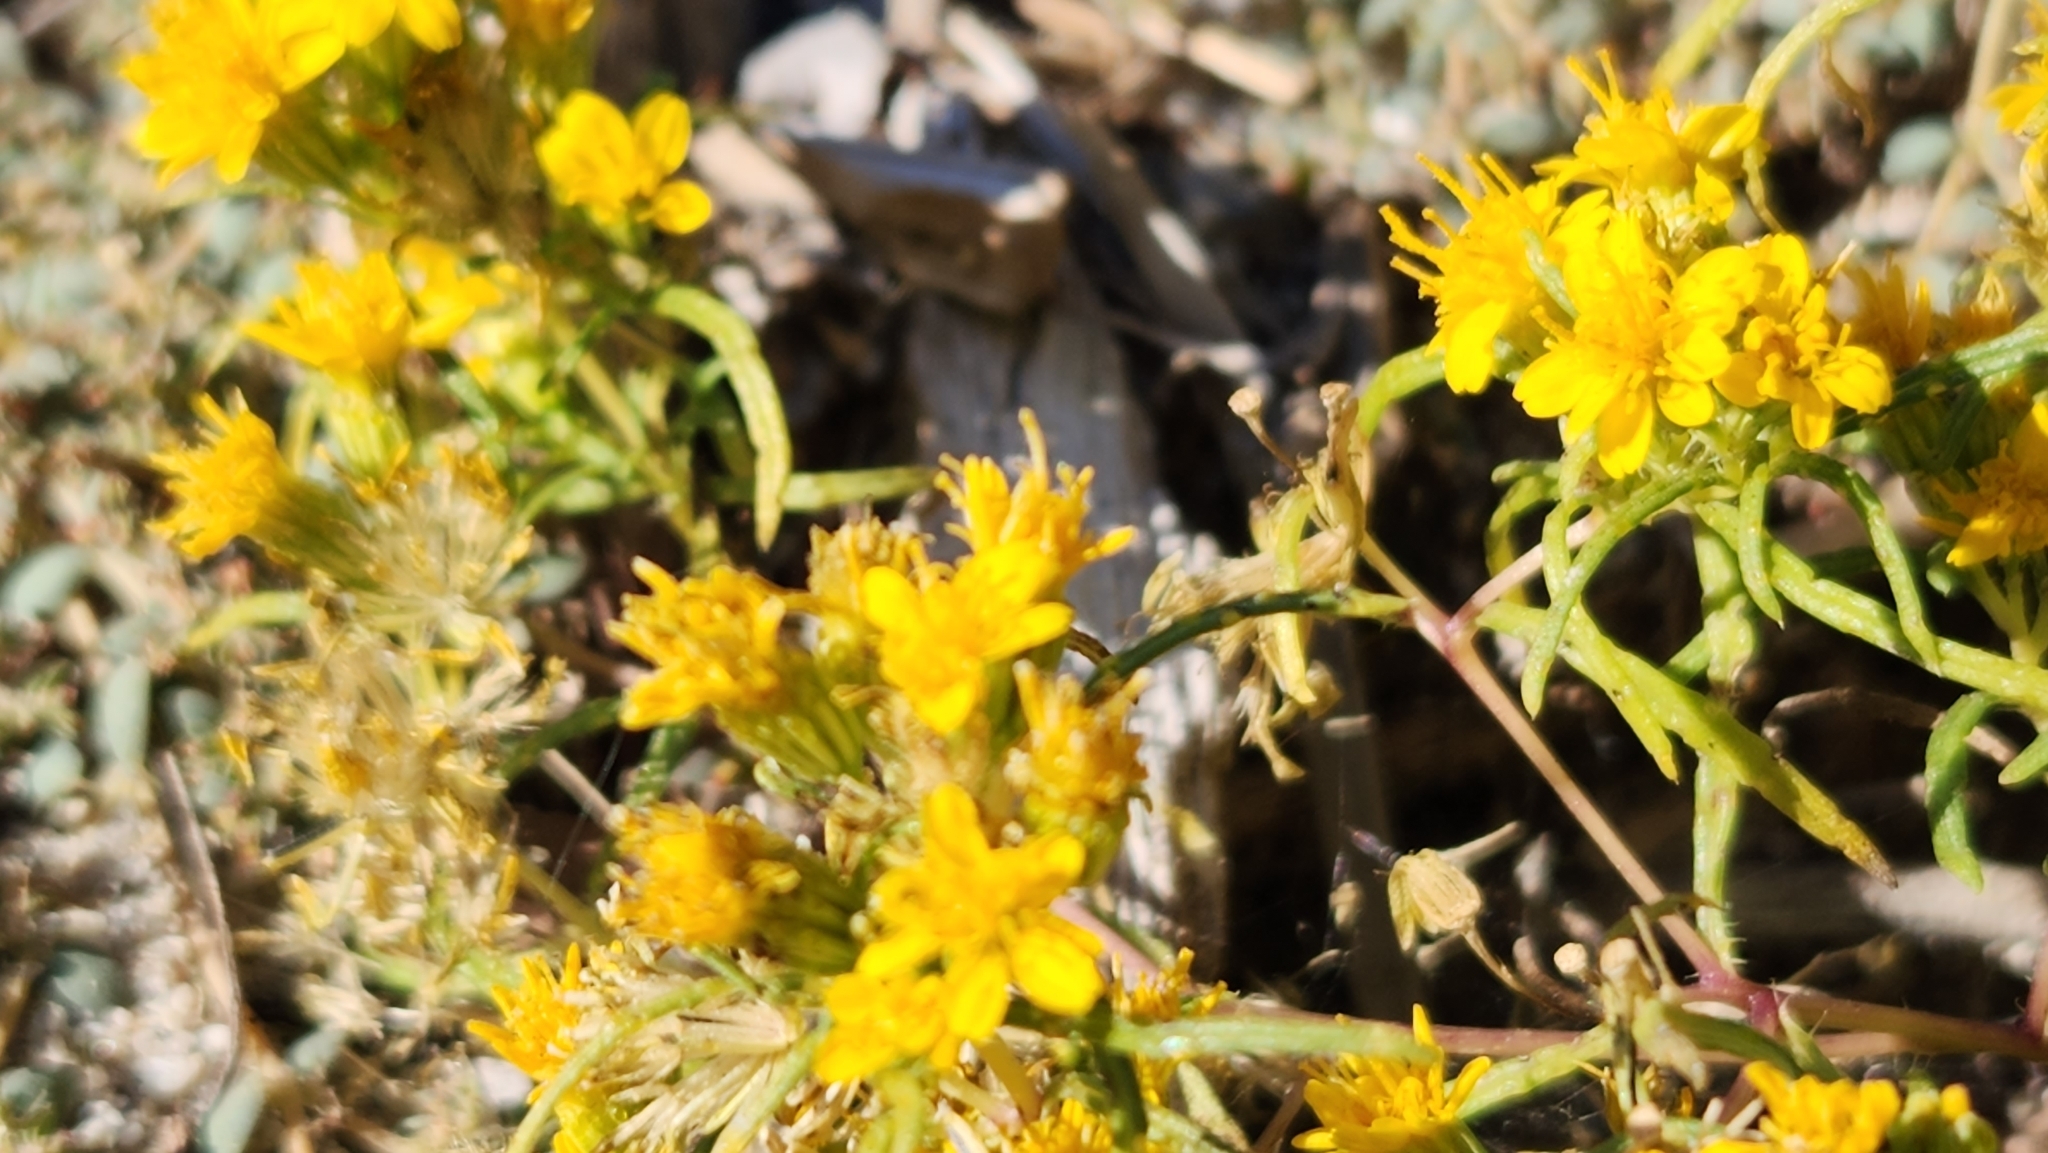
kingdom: Plantae
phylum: Tracheophyta
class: Magnoliopsida
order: Asterales
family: Asteraceae
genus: Pectis
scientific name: Pectis papposa
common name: Many-bristle chinchweed
